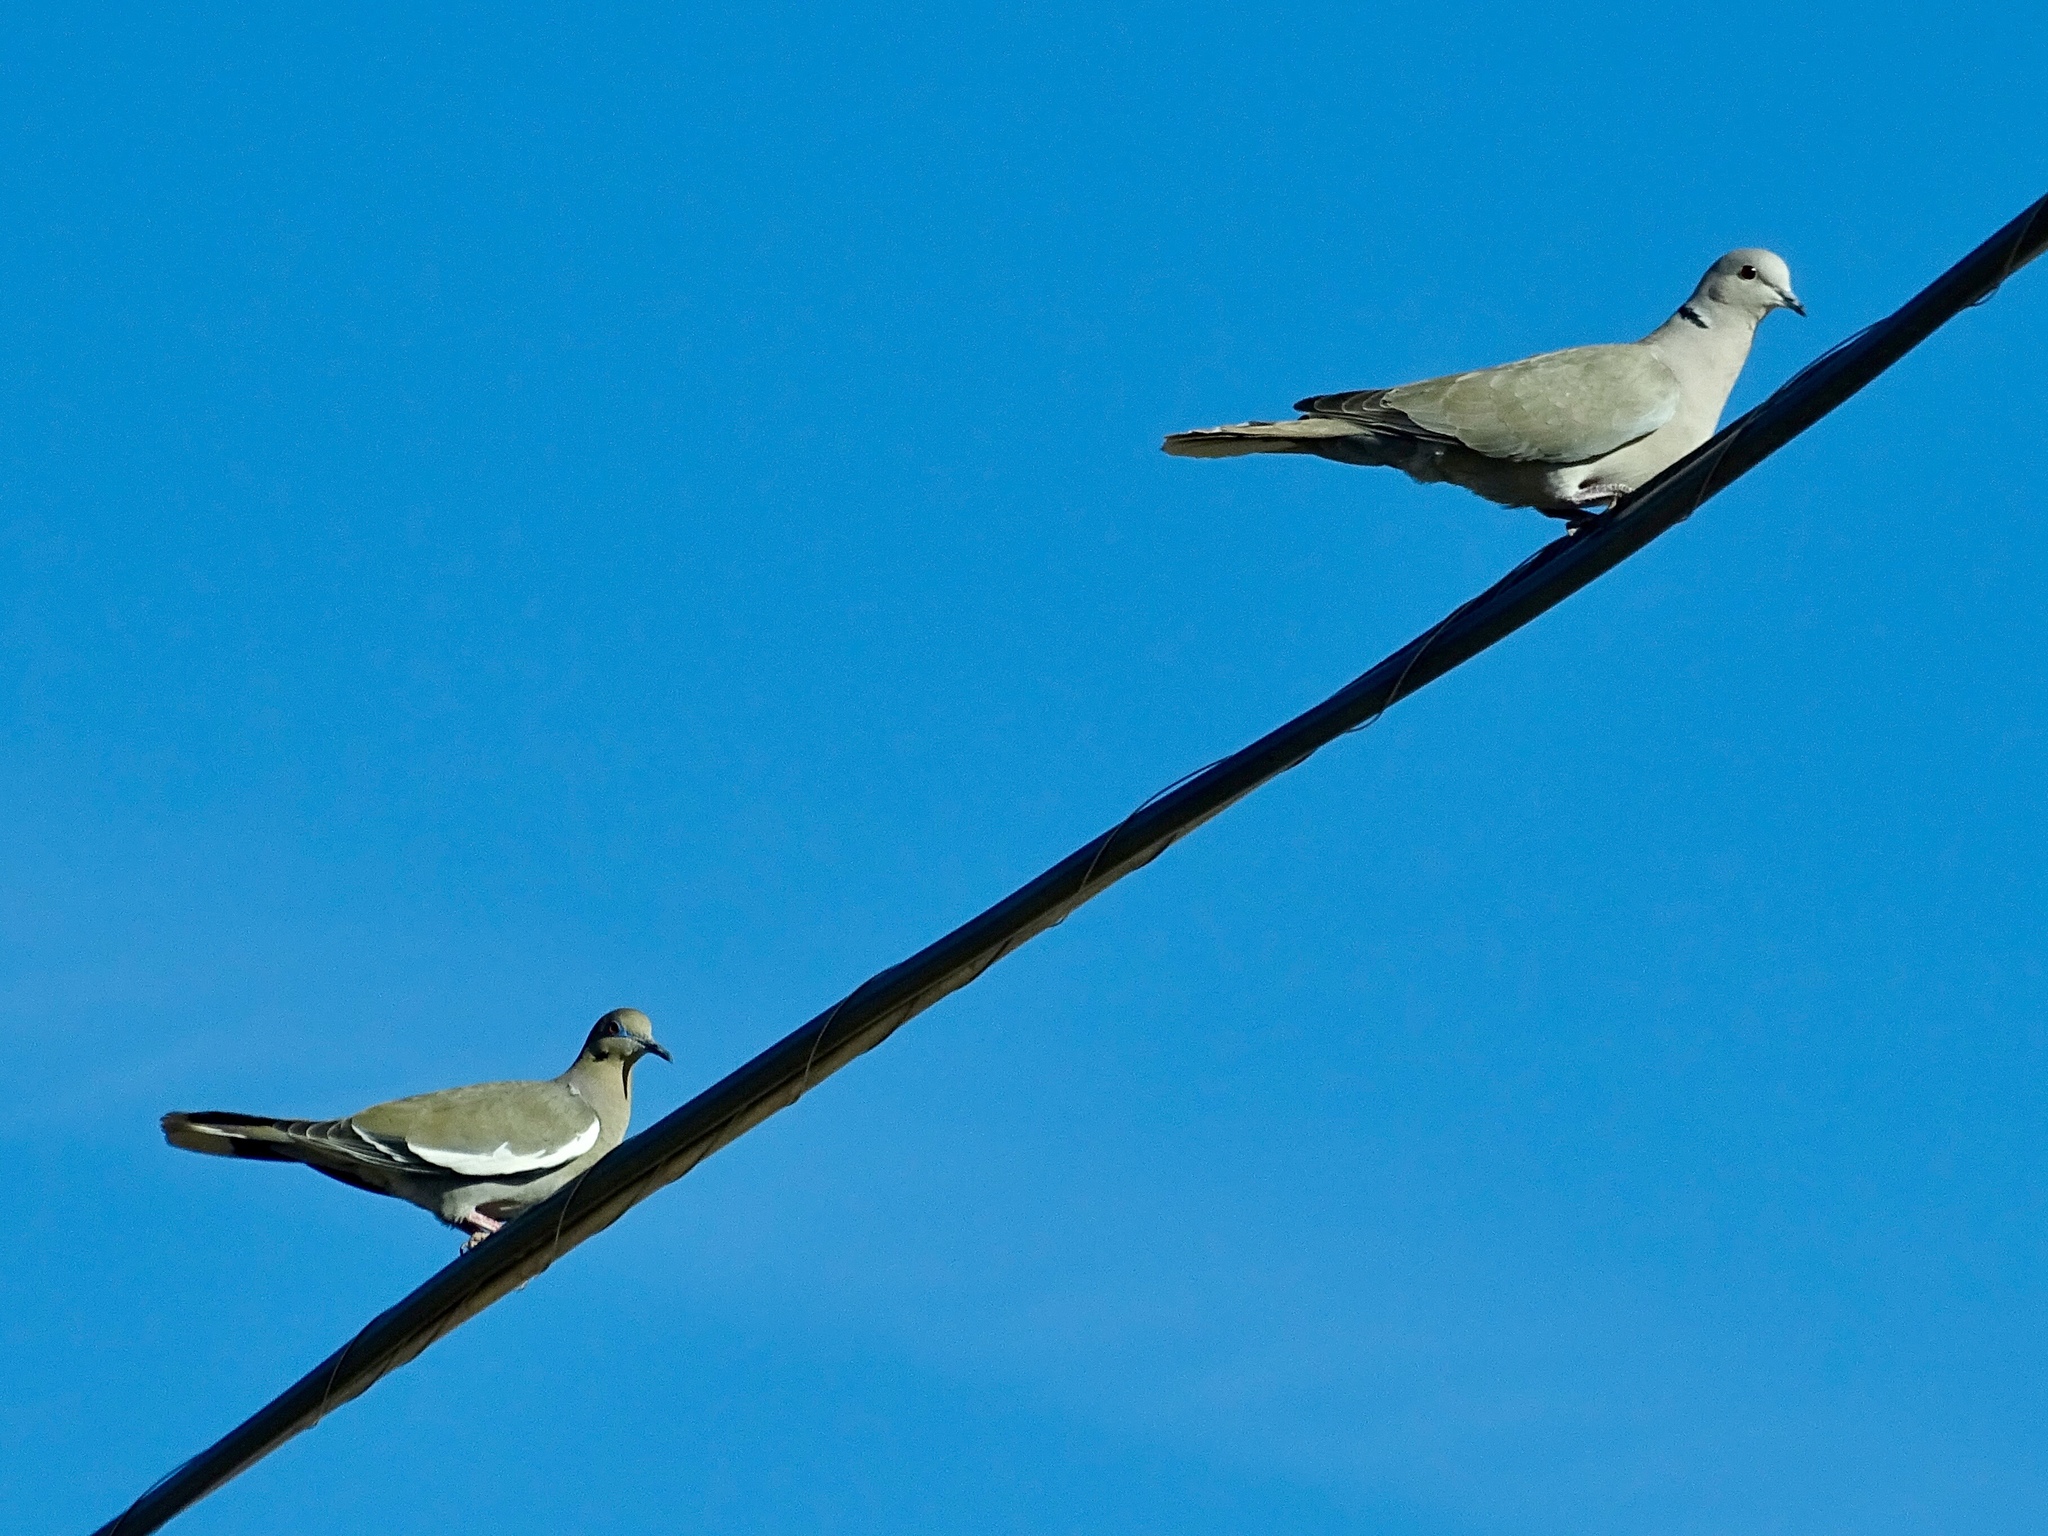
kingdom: Animalia
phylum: Chordata
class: Aves
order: Columbiformes
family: Columbidae
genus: Zenaida
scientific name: Zenaida asiatica
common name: White-winged dove
